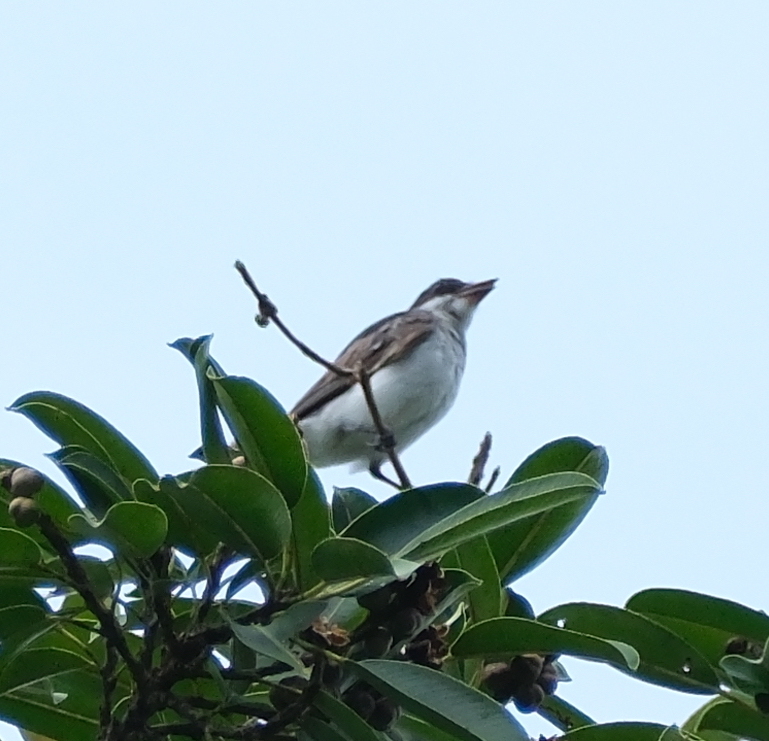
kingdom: Animalia
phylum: Chordata
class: Aves
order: Passeriformes
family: Tyrannidae
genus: Tyrannus
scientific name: Tyrannus tyrannus
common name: Eastern kingbird
